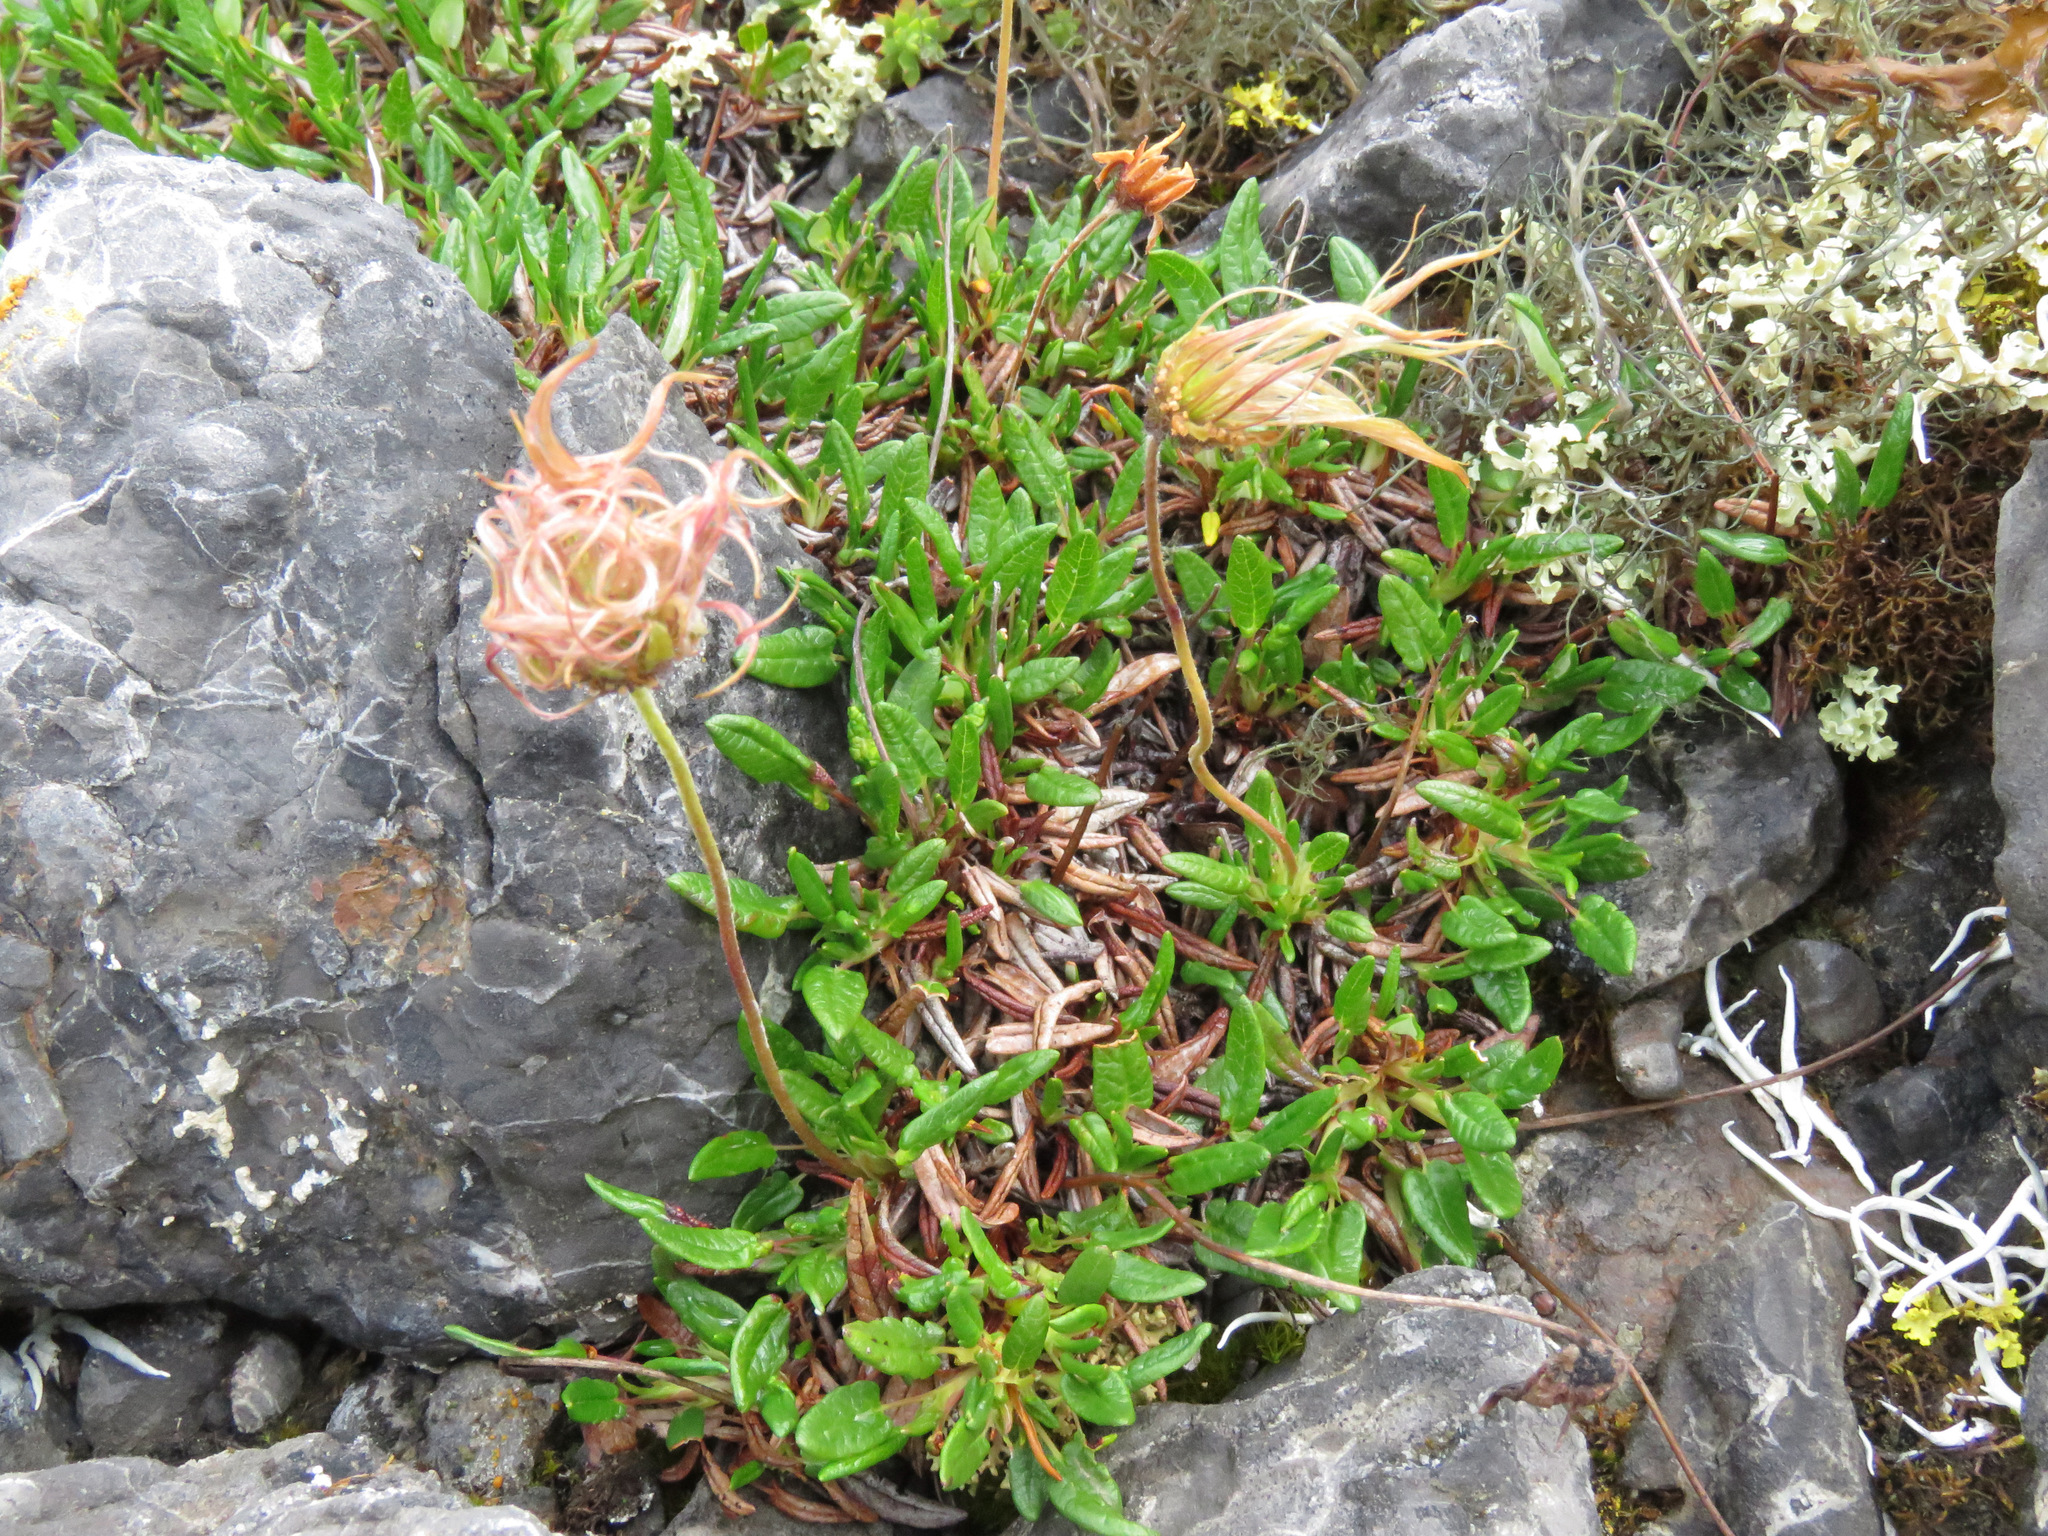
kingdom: Plantae
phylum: Tracheophyta
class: Magnoliopsida
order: Rosales
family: Rosaceae
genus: Dryas
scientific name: Dryas integrifolia
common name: Entire-leaved mountain avens
